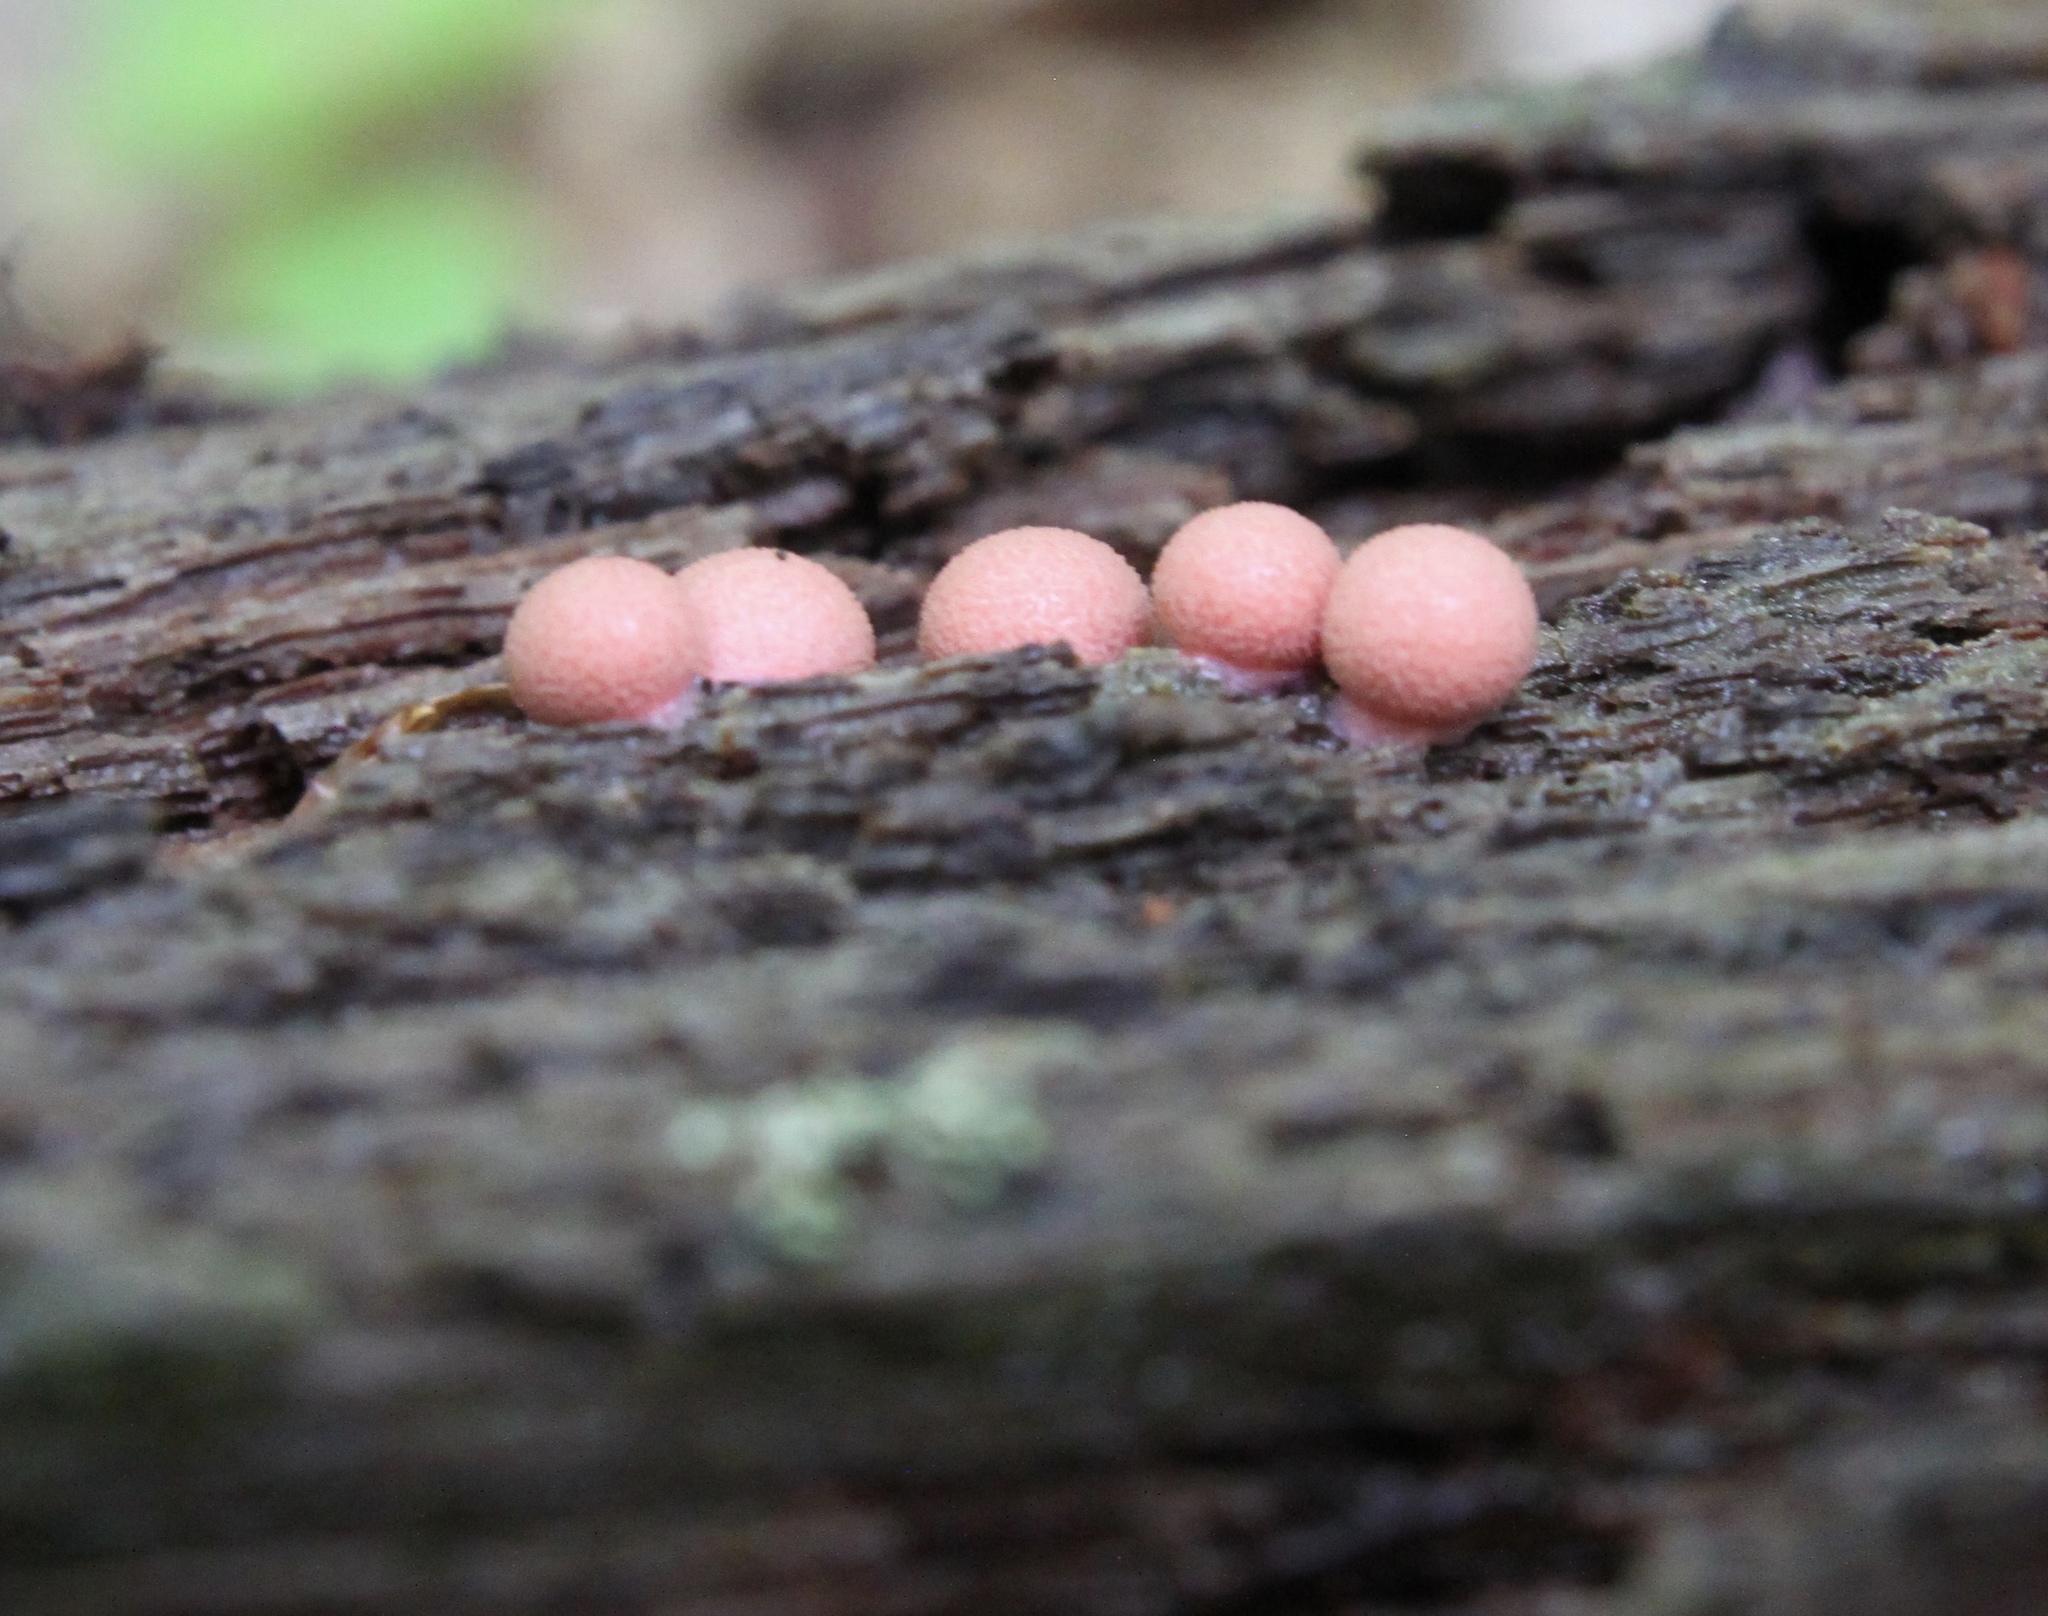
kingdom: Protozoa
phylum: Mycetozoa
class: Myxomycetes
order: Cribrariales
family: Tubiferaceae
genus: Lycogala
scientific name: Lycogala epidendrum
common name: Wolf's milk
